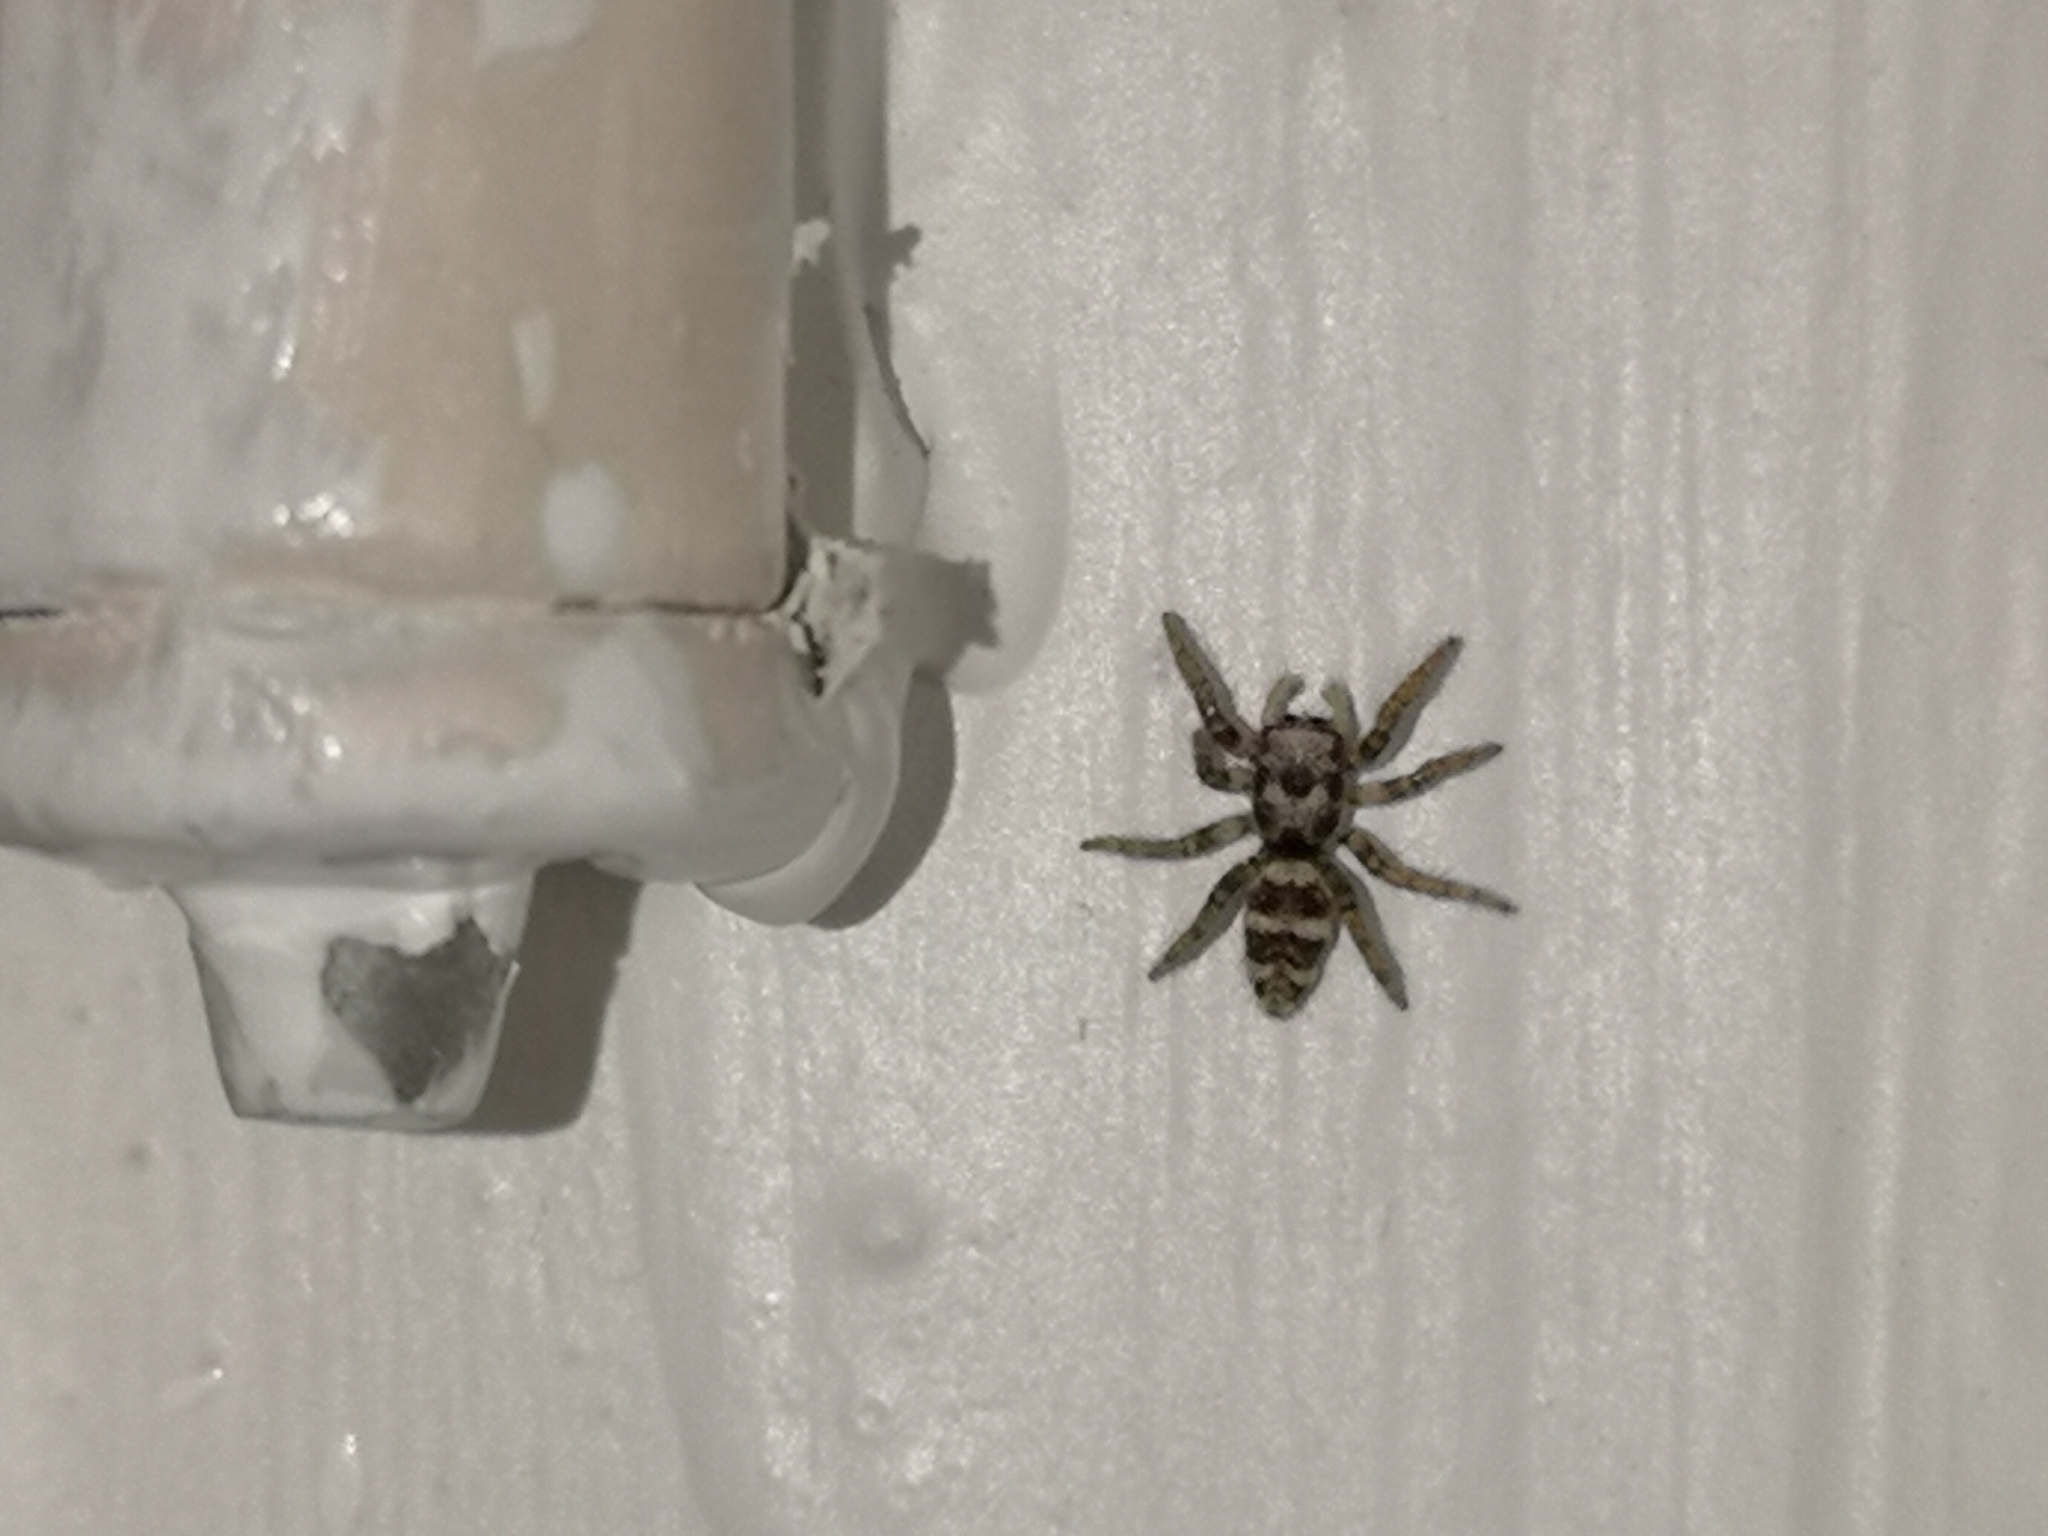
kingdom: Animalia
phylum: Arthropoda
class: Arachnida
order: Araneae
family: Salticidae
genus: Salticus
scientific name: Salticus cingulatus
